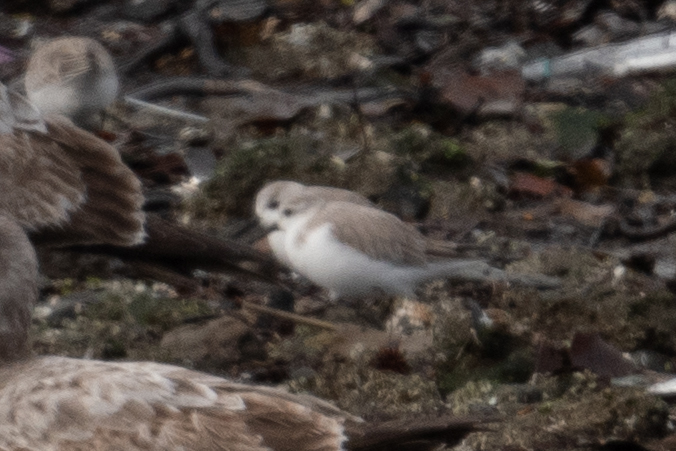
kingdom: Animalia
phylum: Chordata
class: Aves
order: Charadriiformes
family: Scolopacidae
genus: Calidris
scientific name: Calidris alba
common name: Sanderling
